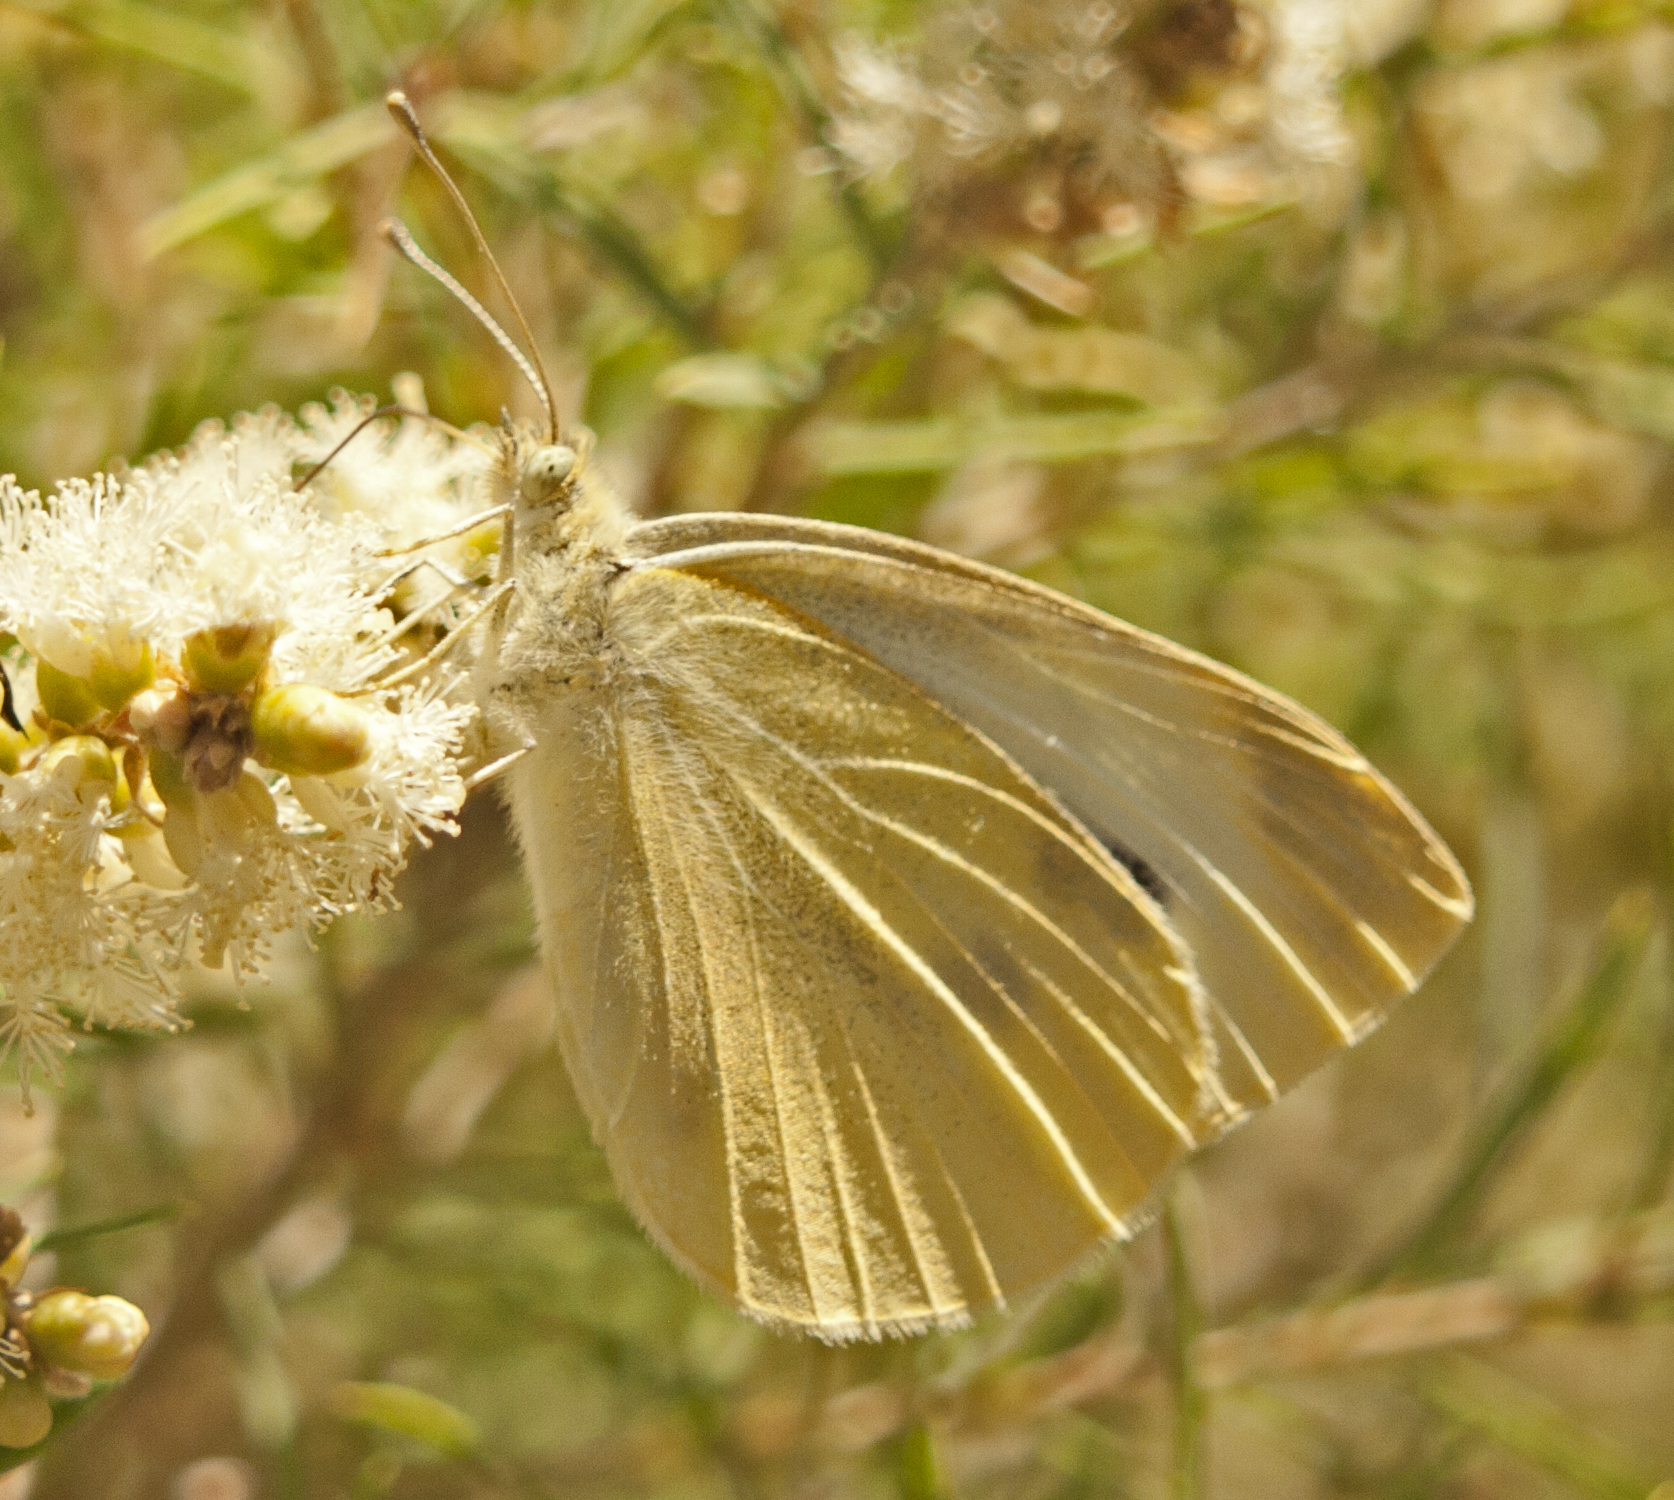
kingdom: Animalia
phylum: Arthropoda
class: Insecta
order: Lepidoptera
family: Pieridae
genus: Pieris
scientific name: Pieris rapae
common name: Small white
